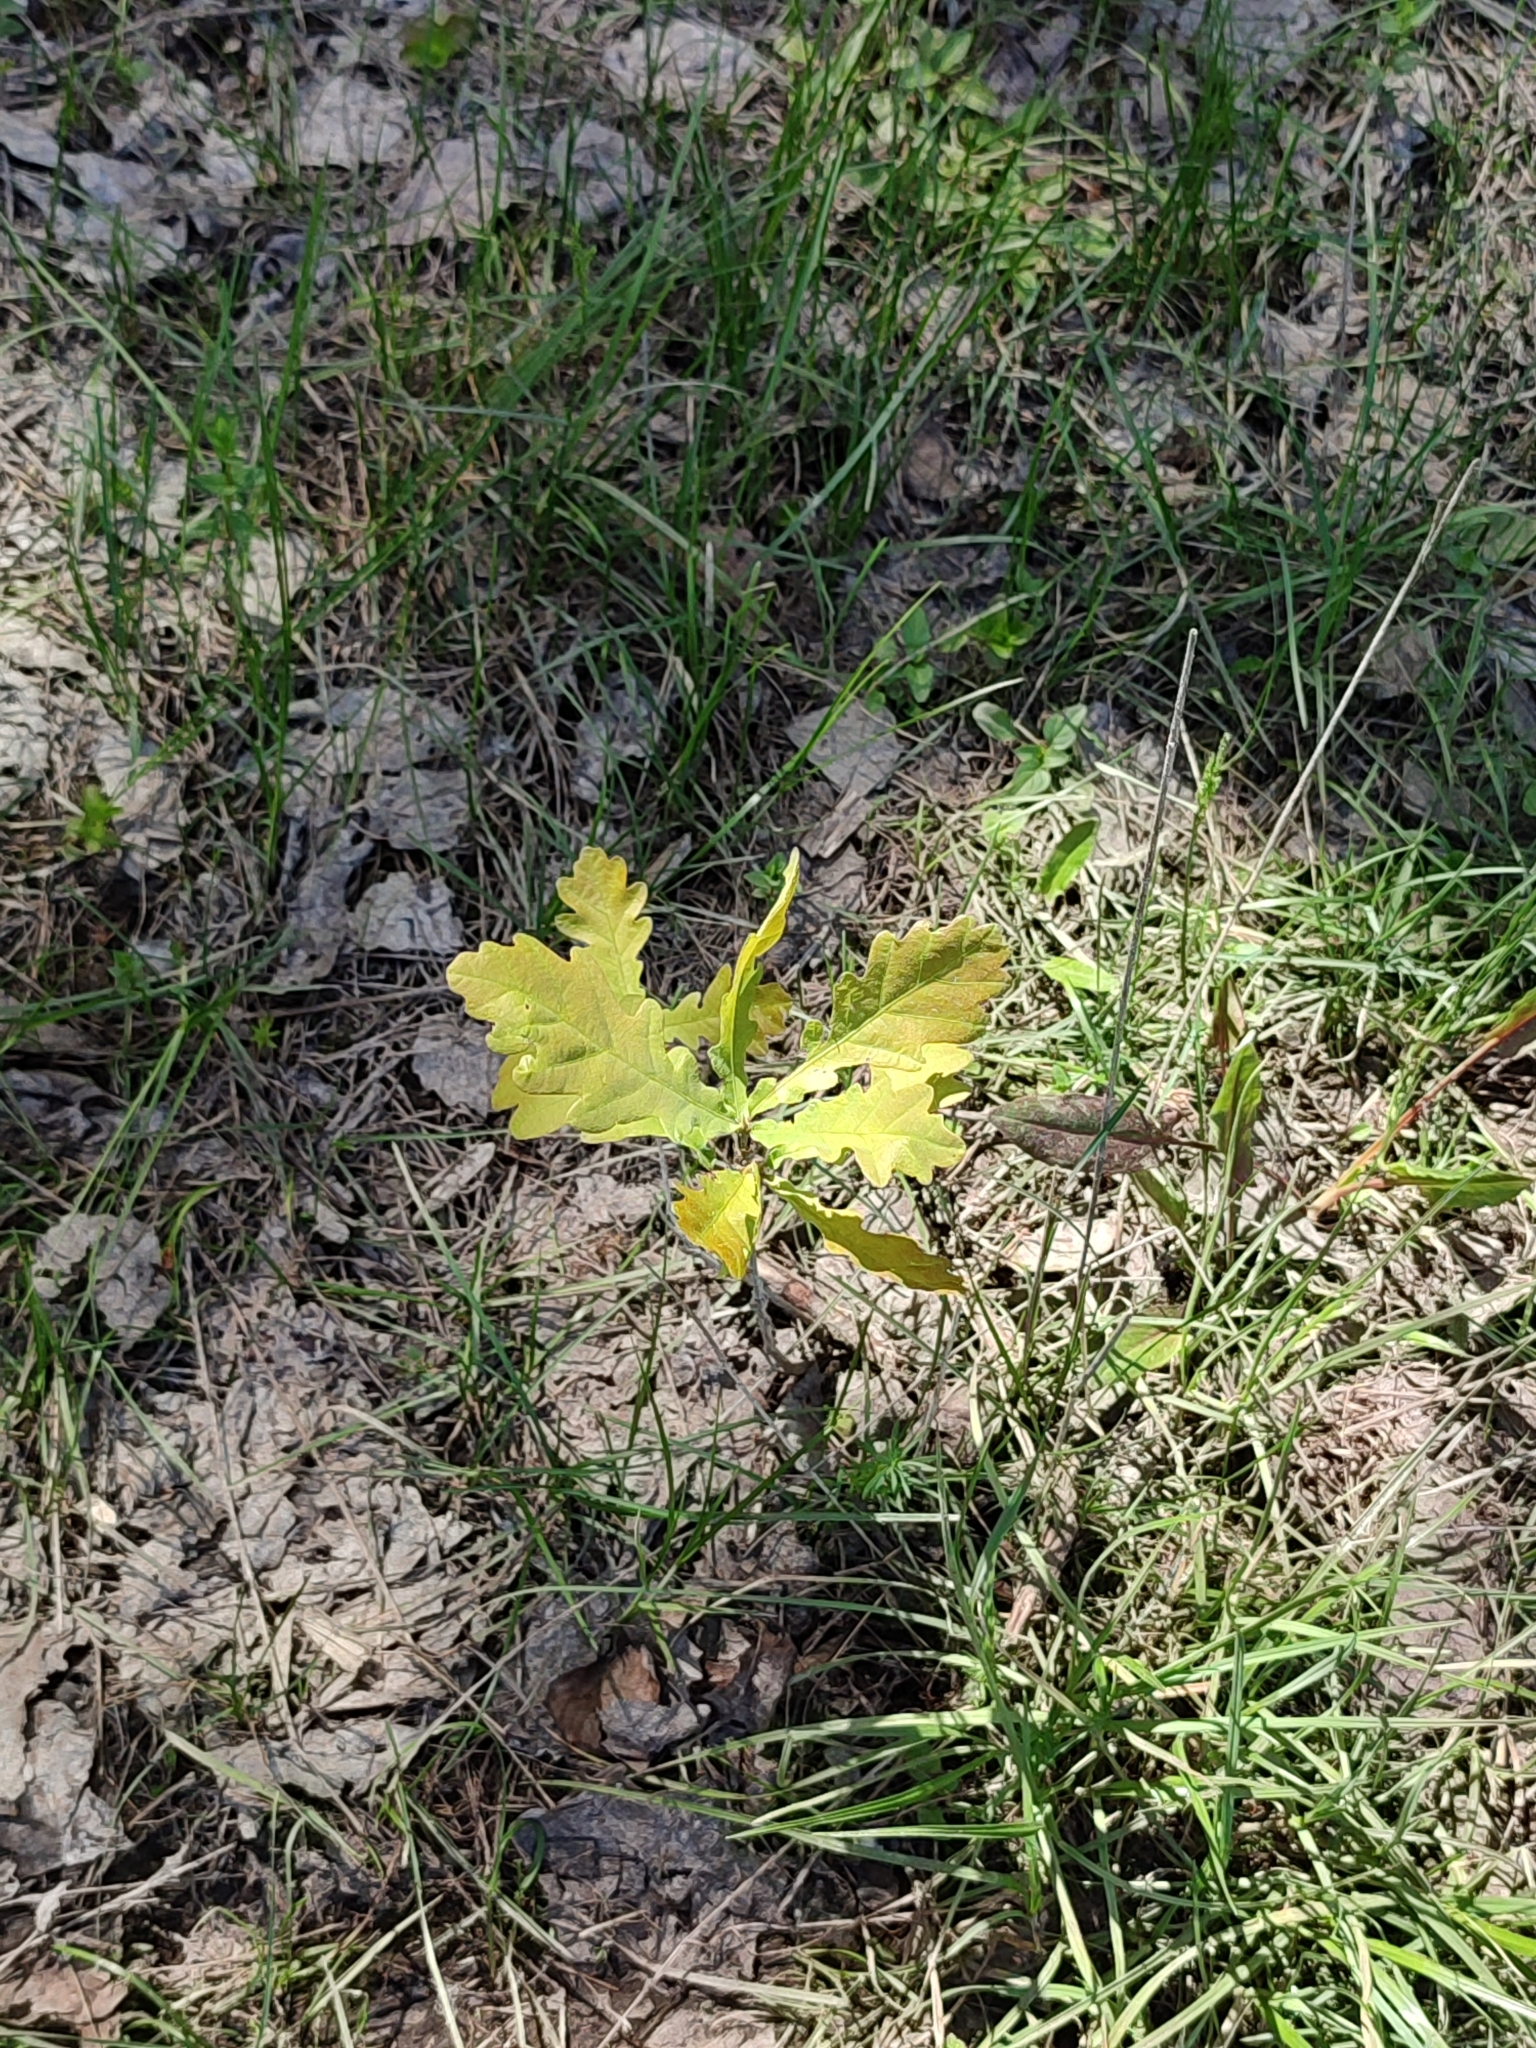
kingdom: Plantae
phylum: Tracheophyta
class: Magnoliopsida
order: Fagales
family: Fagaceae
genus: Quercus
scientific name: Quercus robur
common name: Pedunculate oak
